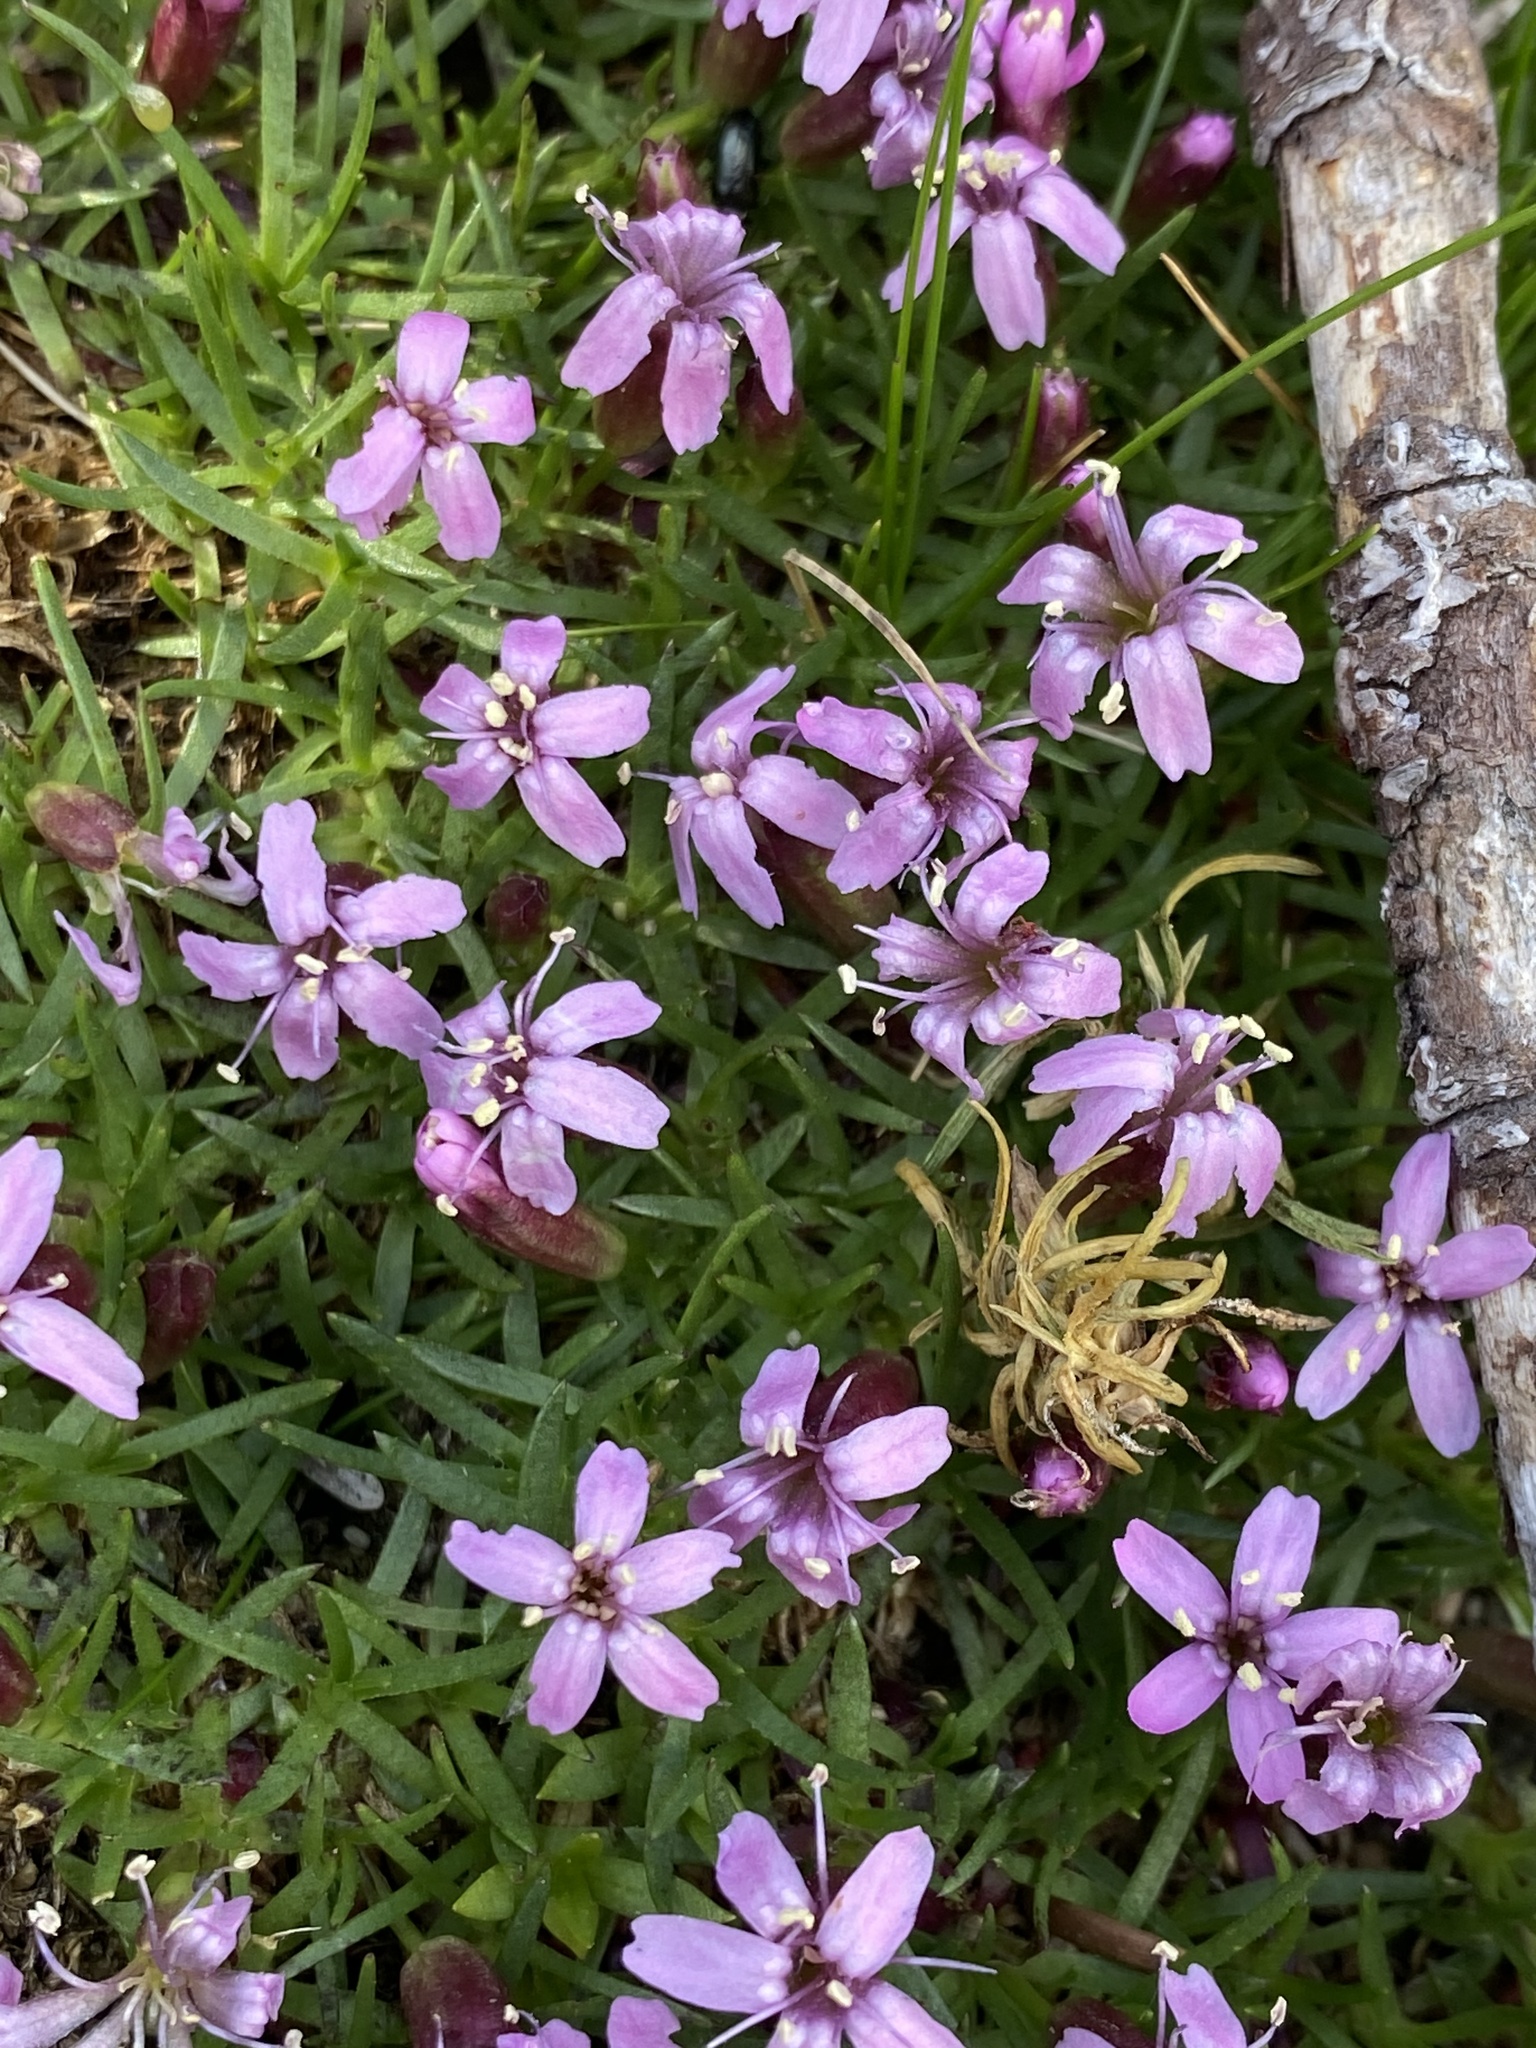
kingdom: Plantae
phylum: Tracheophyta
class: Magnoliopsida
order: Caryophyllales
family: Caryophyllaceae
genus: Silene
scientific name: Silene acaulis
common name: Moss campion
